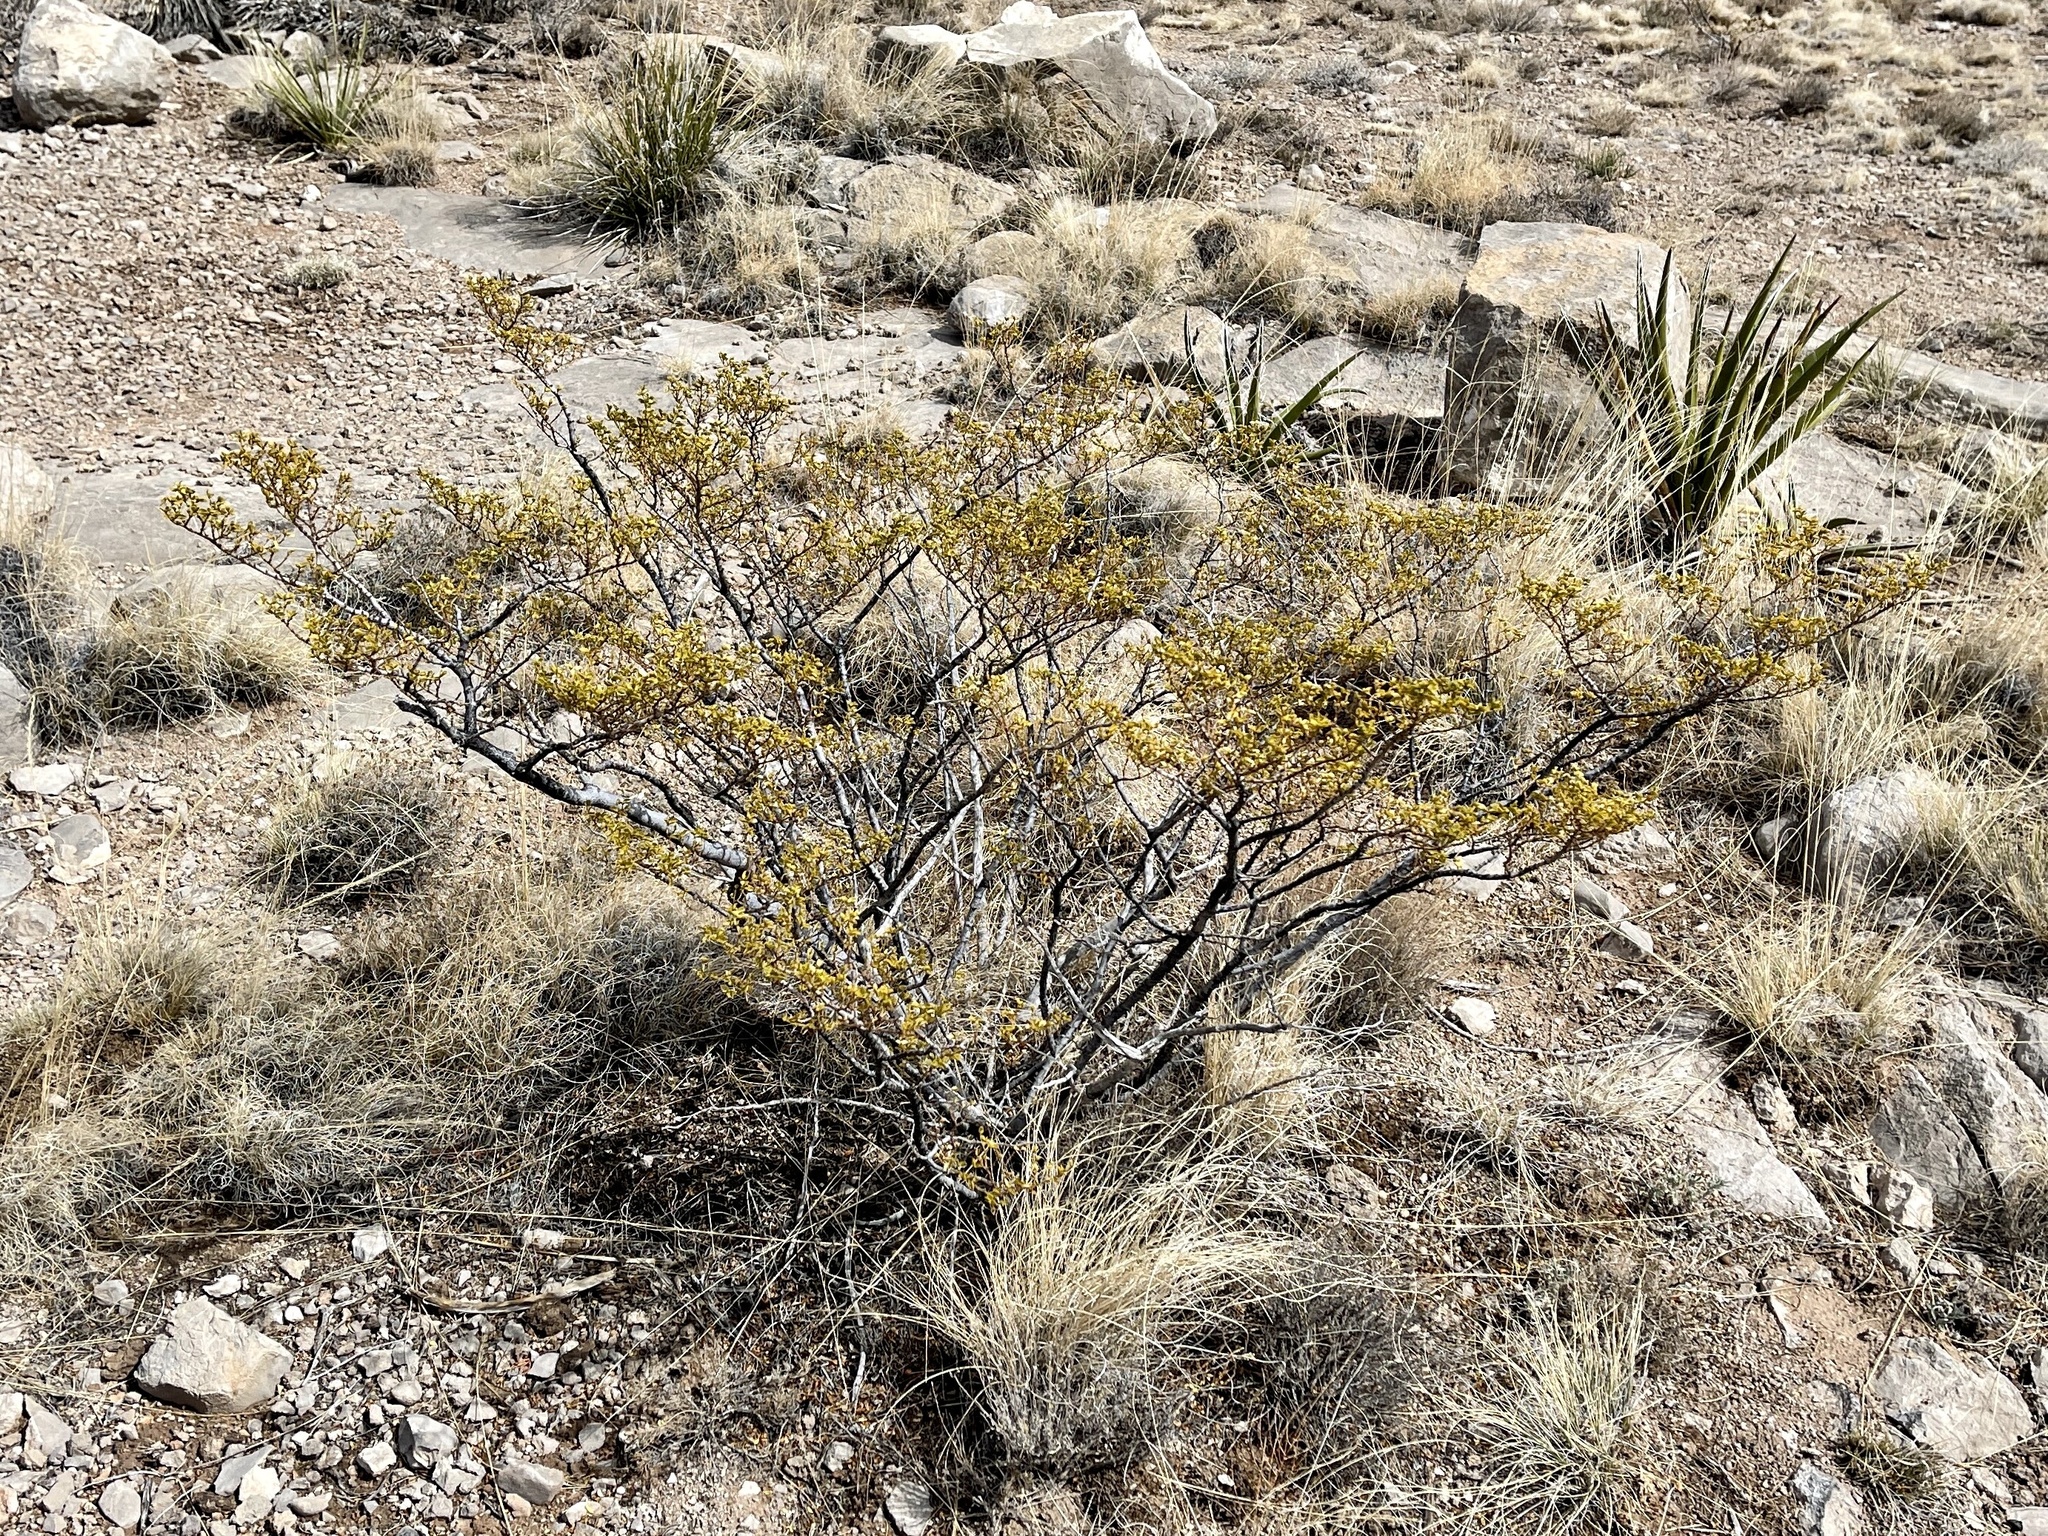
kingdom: Plantae
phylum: Tracheophyta
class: Magnoliopsida
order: Zygophyllales
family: Zygophyllaceae
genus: Larrea
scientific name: Larrea tridentata
